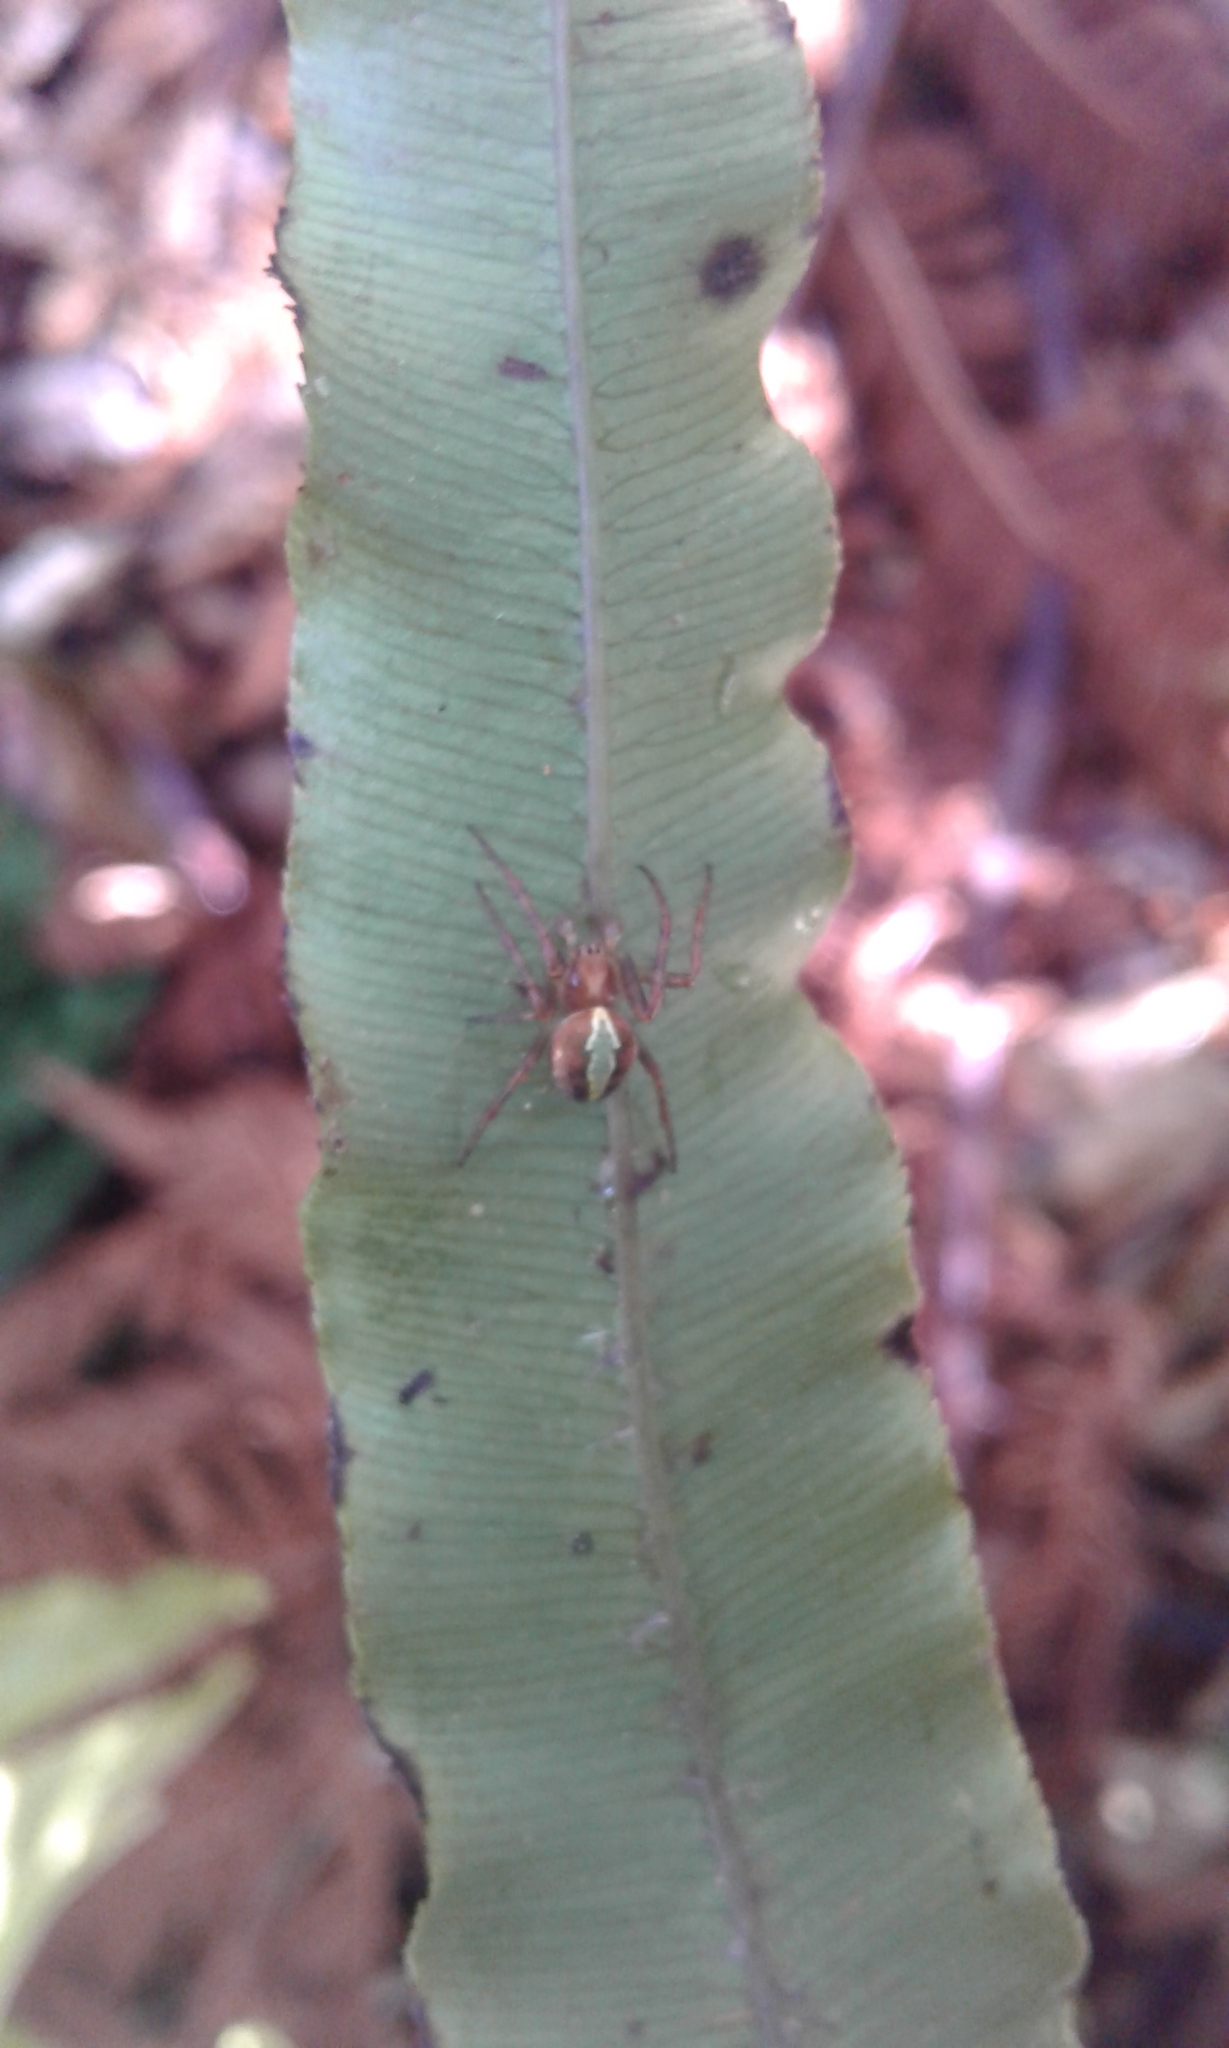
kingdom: Animalia
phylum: Arthropoda
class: Arachnida
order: Araneae
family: Araneidae
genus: Novaranea
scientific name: Novaranea queribunda
